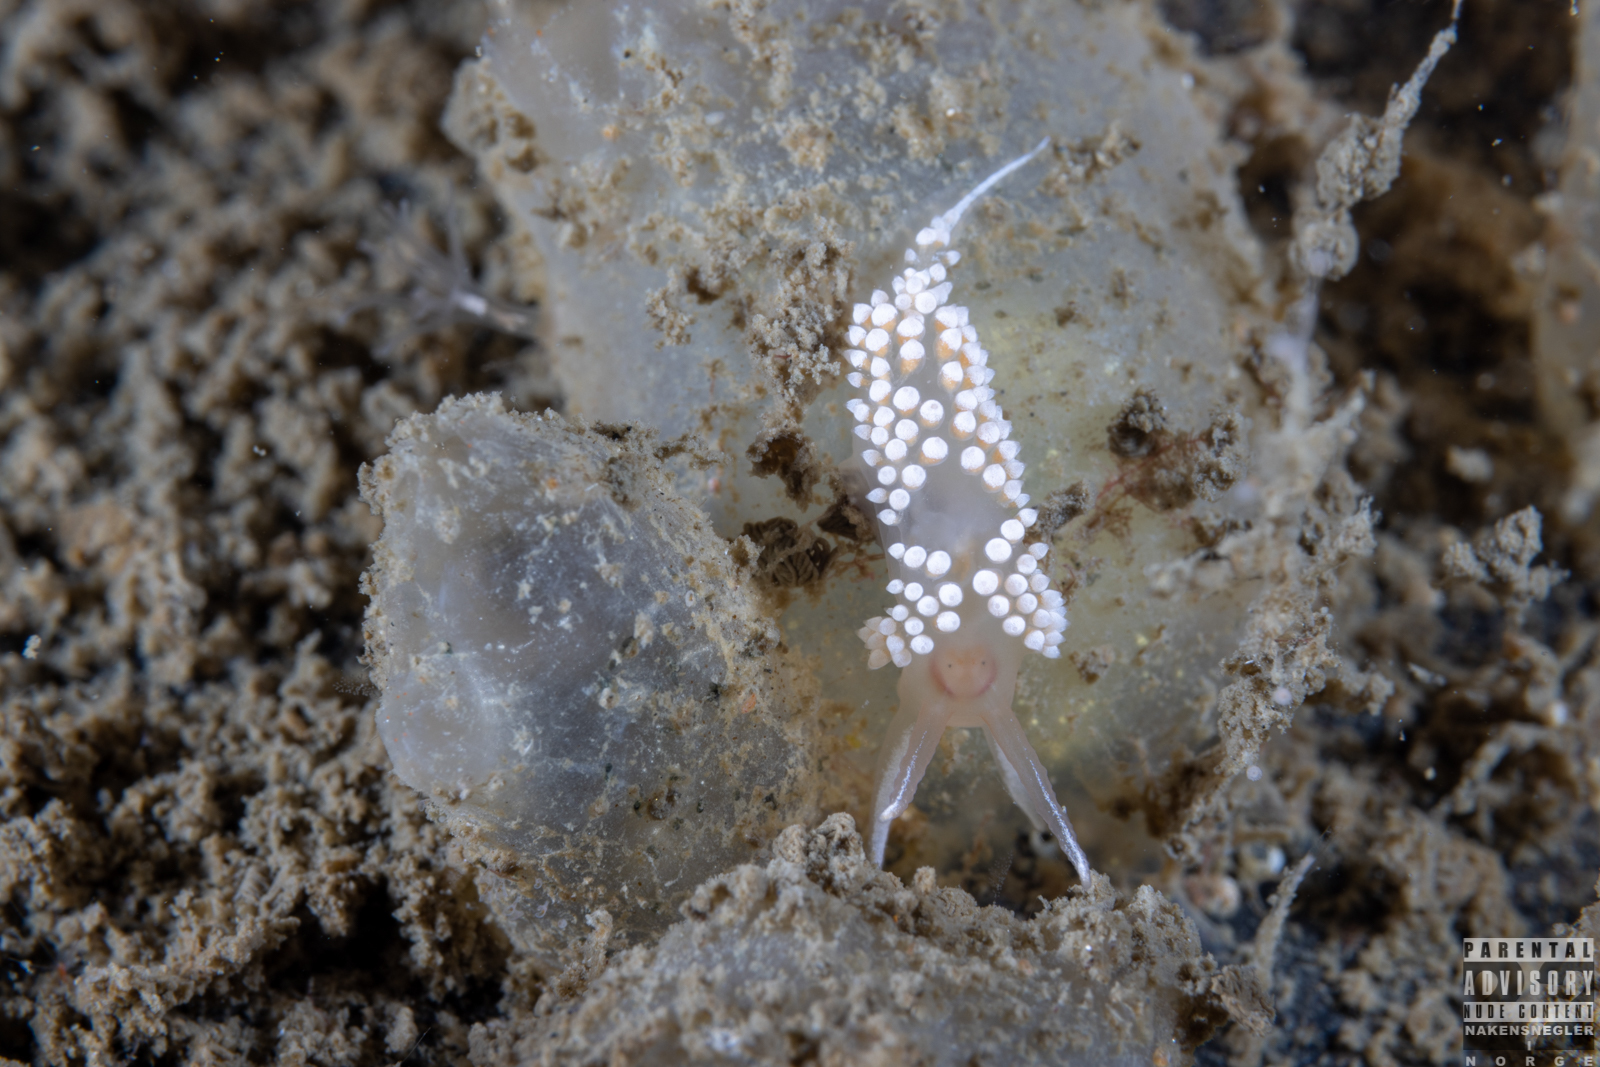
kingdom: Animalia
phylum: Mollusca
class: Gastropoda
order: Nudibranchia
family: Coryphellidae
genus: Coryphella
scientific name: Coryphella verrucosa
